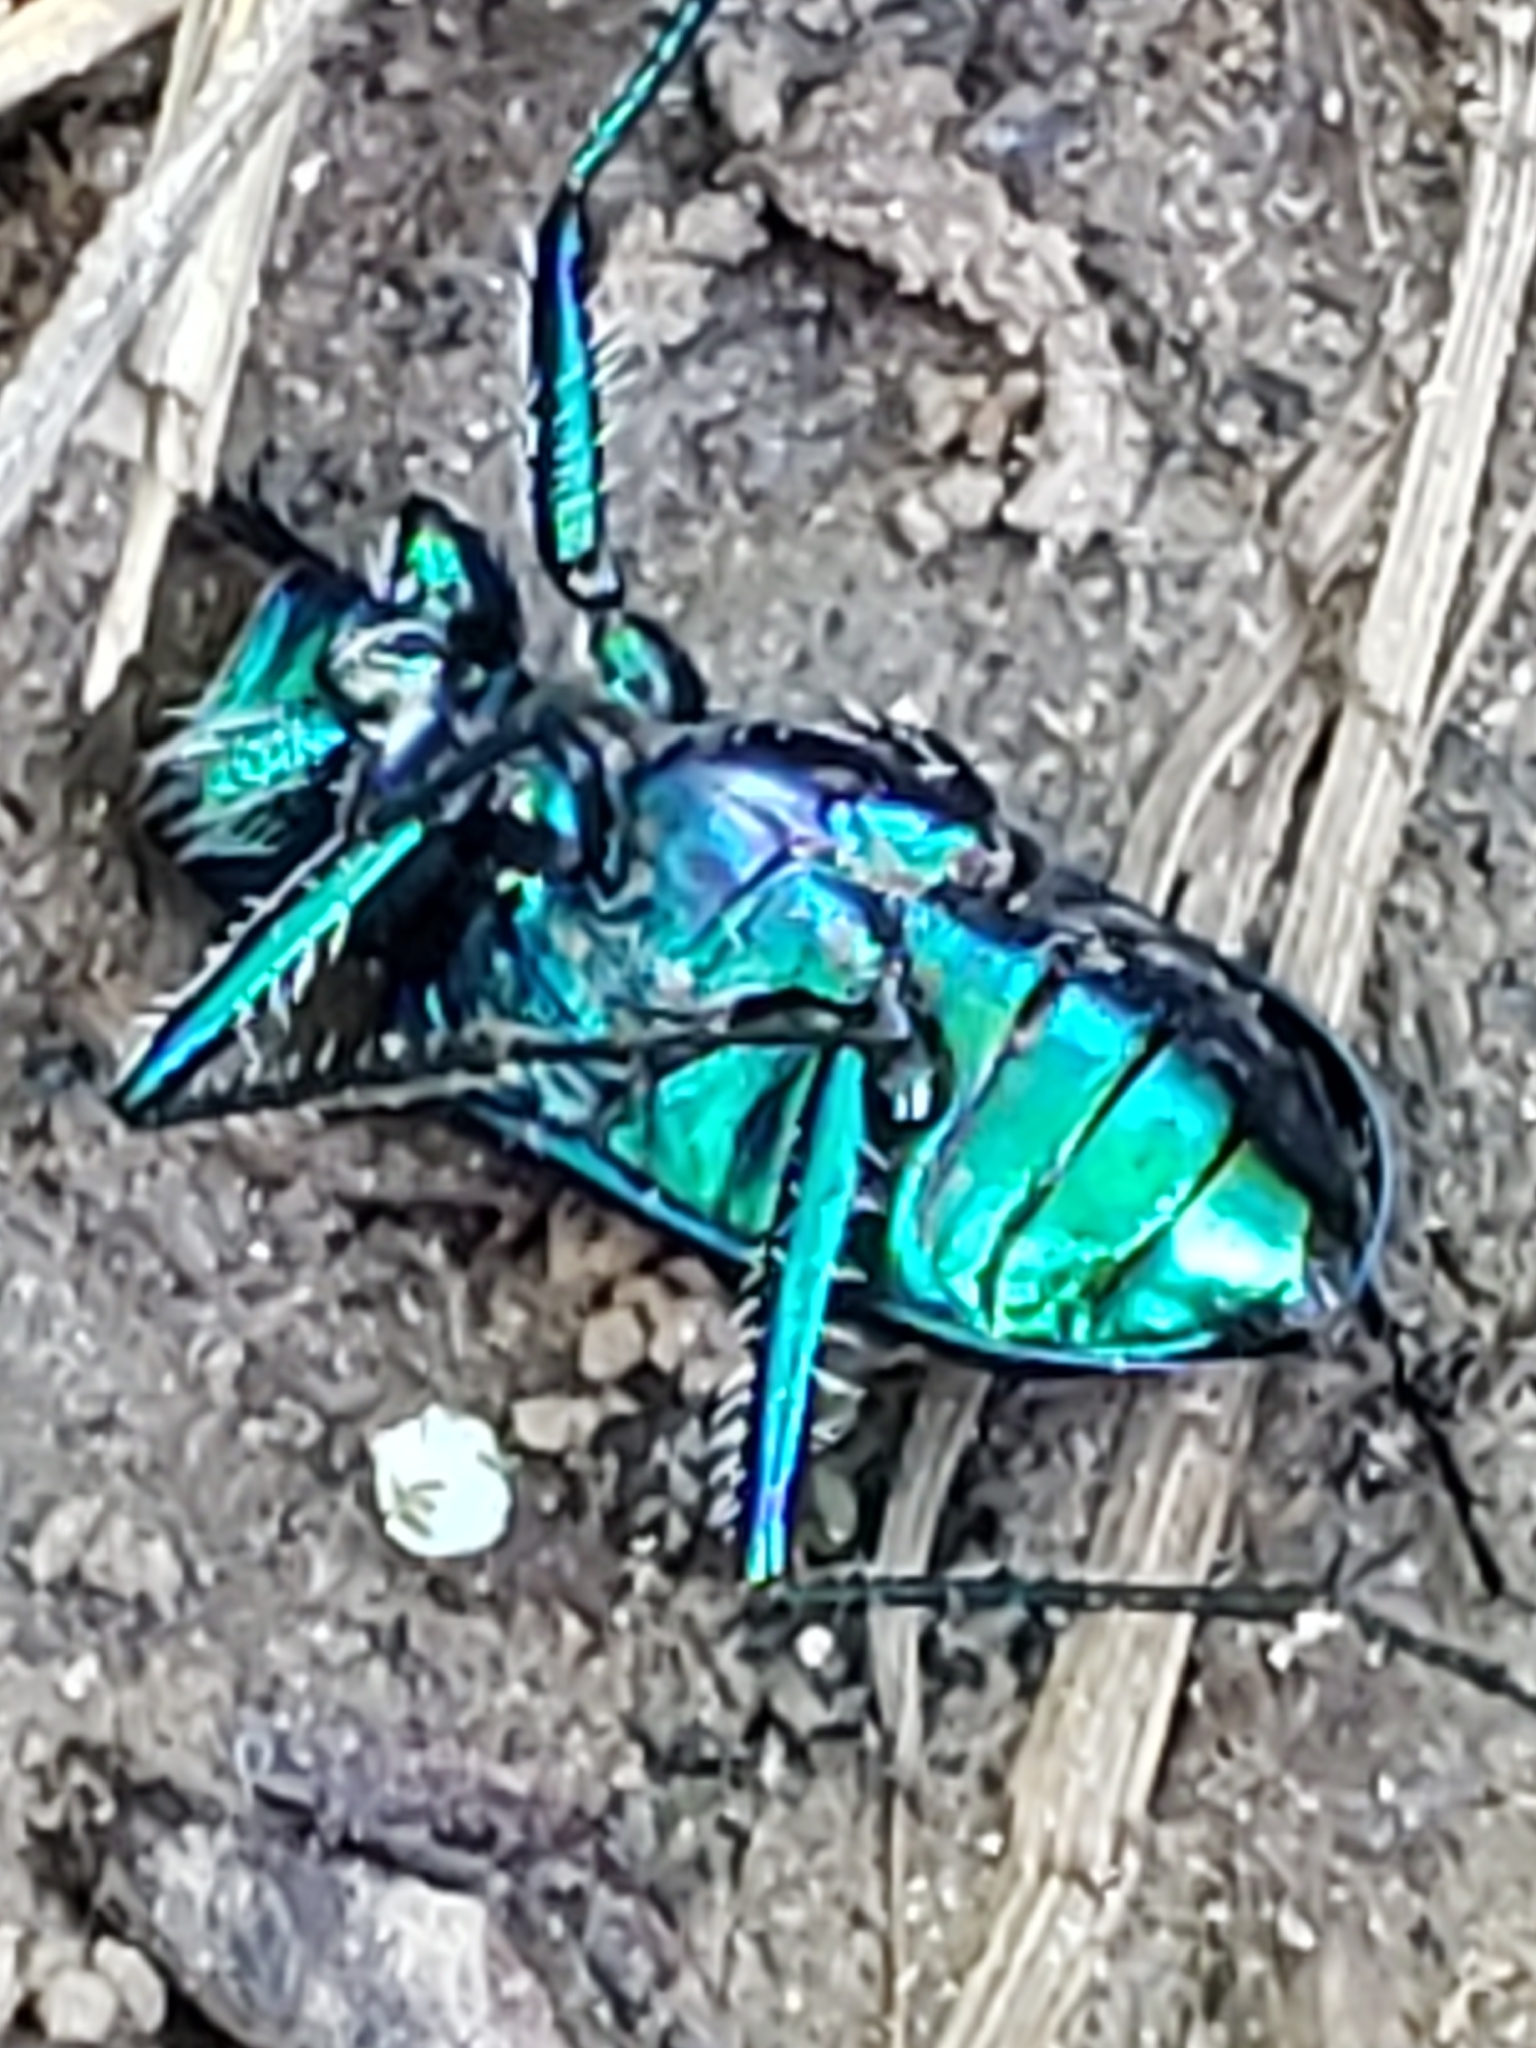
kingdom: Animalia
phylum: Arthropoda
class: Insecta
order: Coleoptera
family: Carabidae
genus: Cicindela
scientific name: Cicindela sexguttata
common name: Six-spotted tiger beetle
